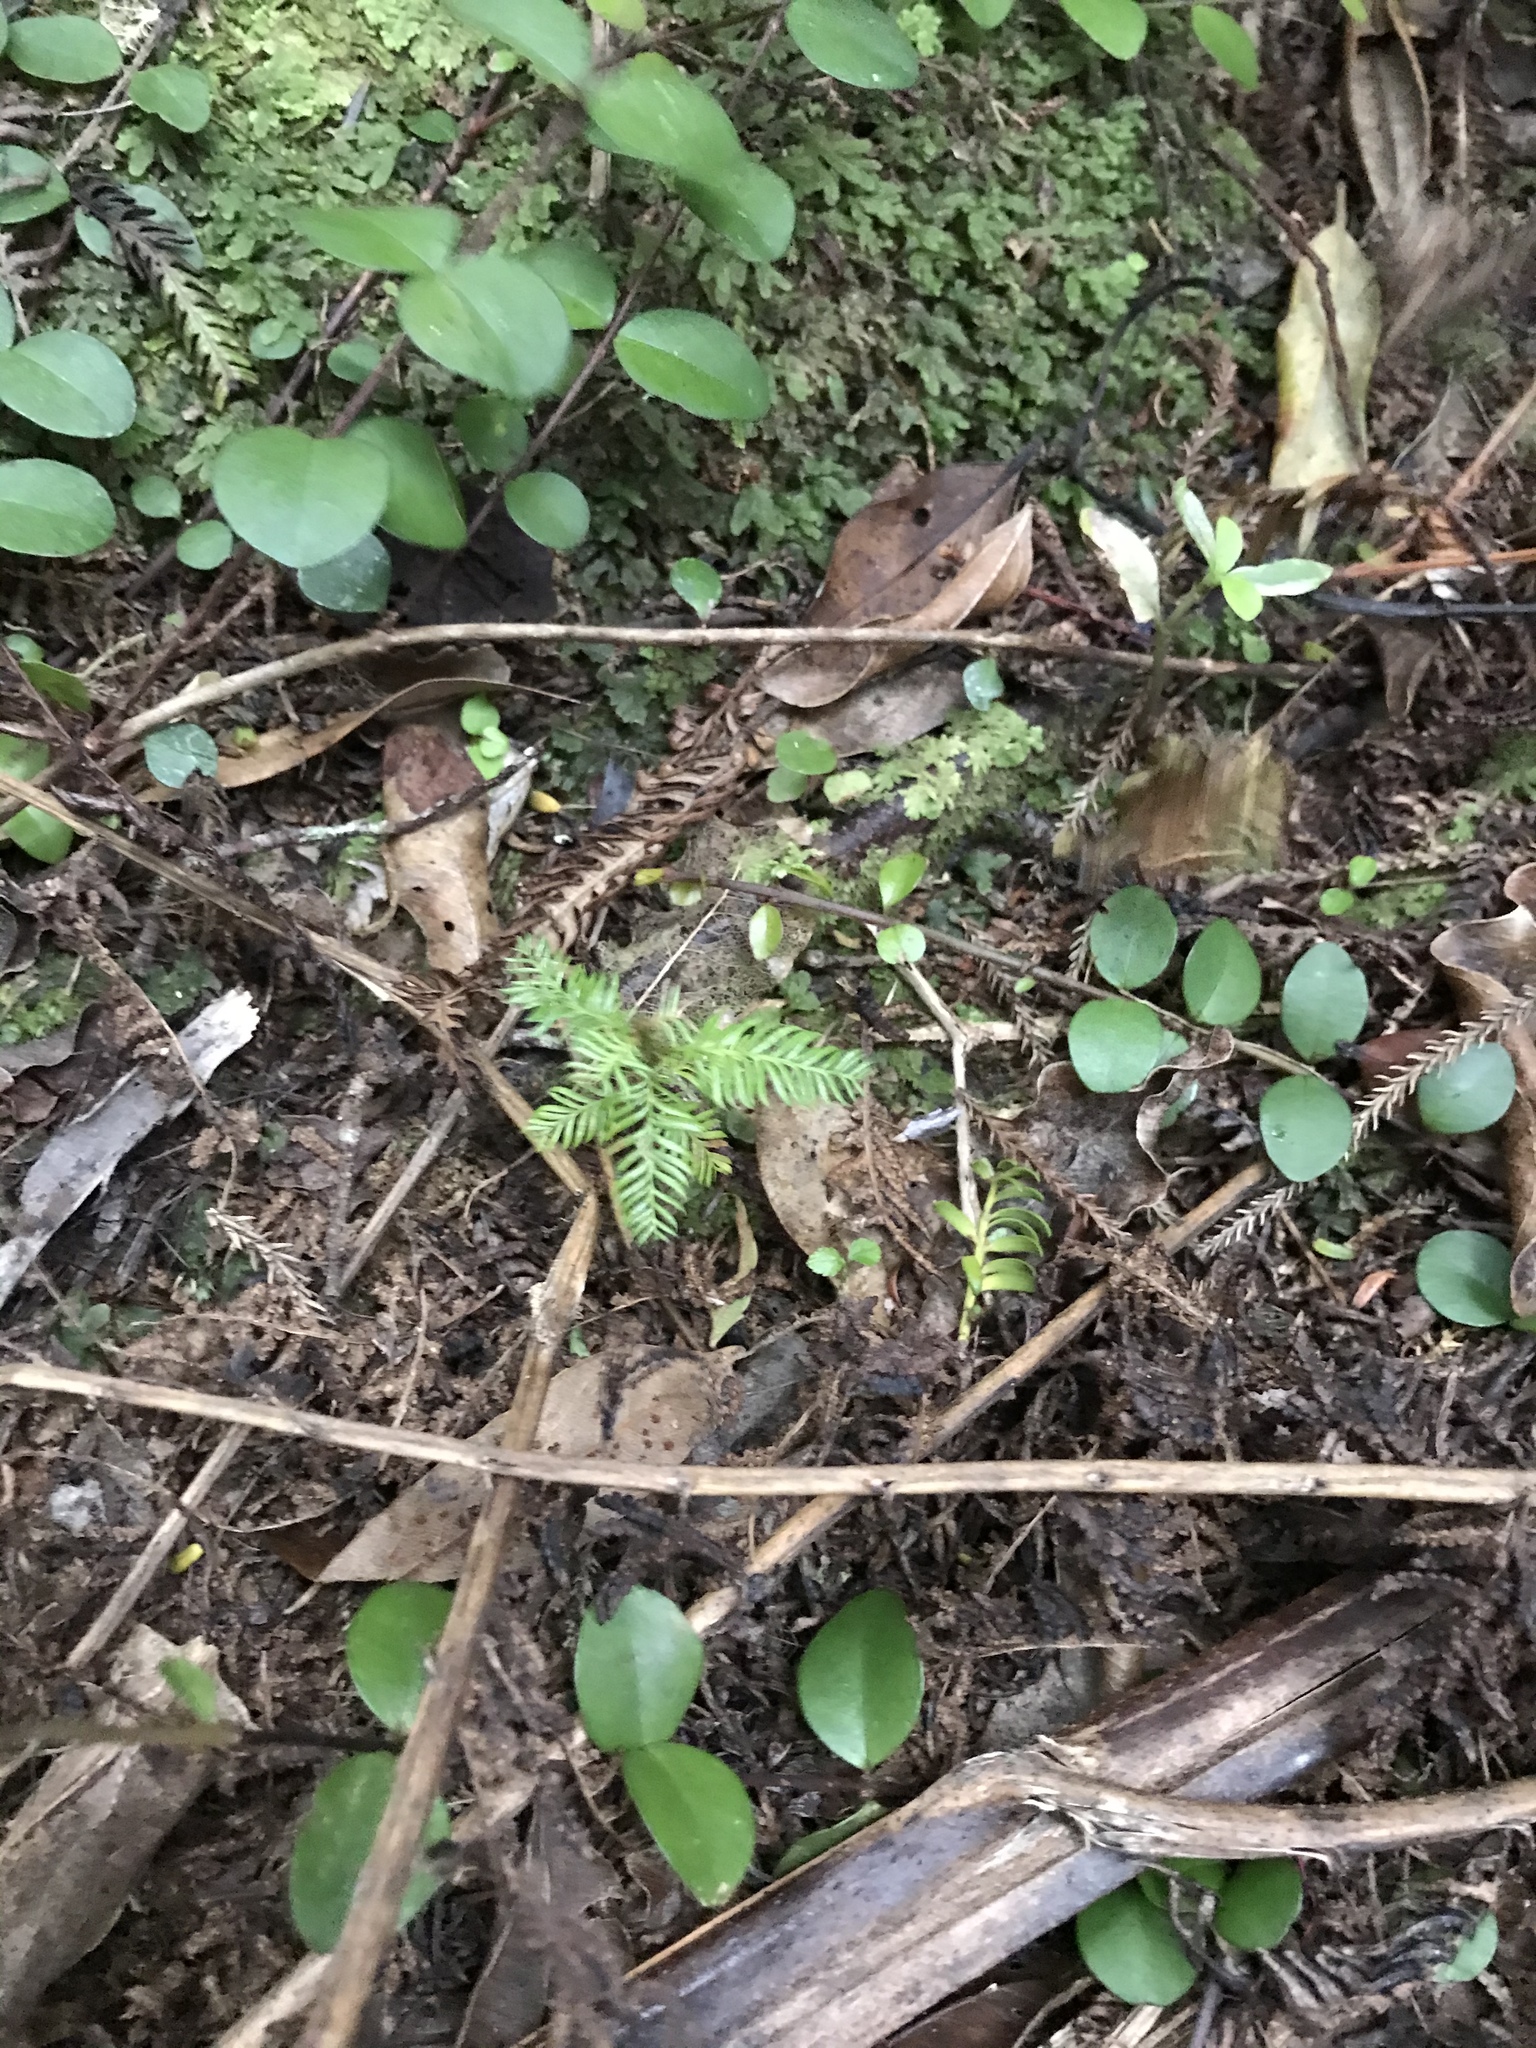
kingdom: Plantae
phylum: Tracheophyta
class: Pinopsida
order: Pinales
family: Podocarpaceae
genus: Dacrycarpus
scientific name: Dacrycarpus dacrydioides
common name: White pine
